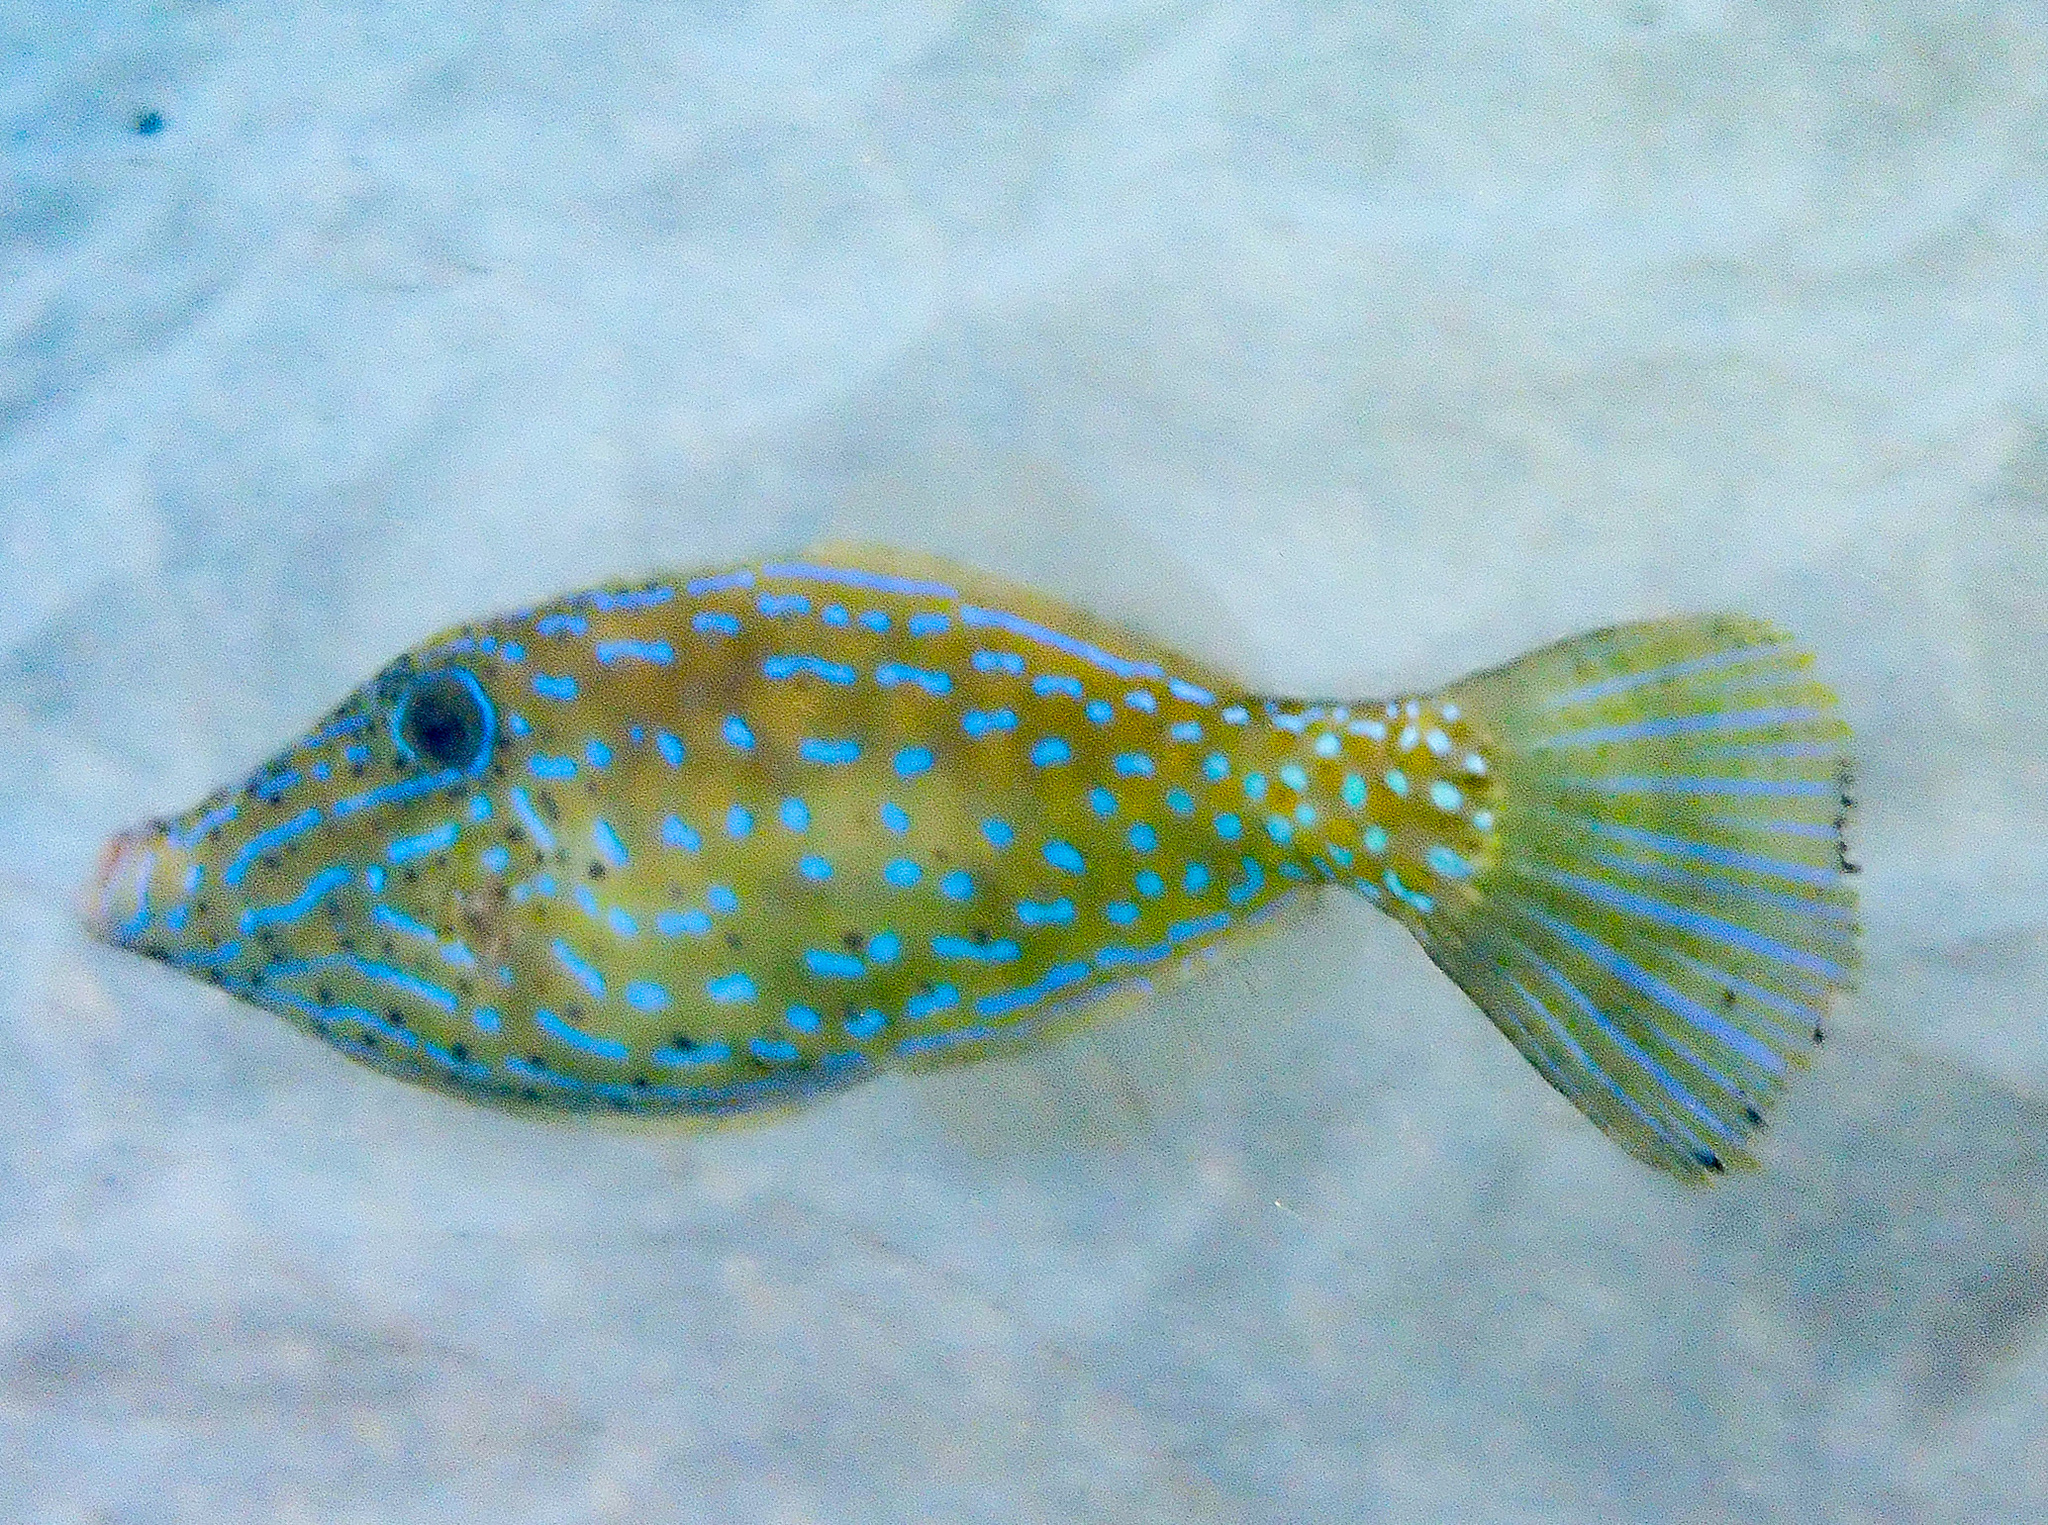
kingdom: Animalia
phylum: Chordata
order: Tetraodontiformes
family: Monacanthidae
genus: Aluterus
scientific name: Aluterus scriptus
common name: Scribbled leatherjacket filefish
